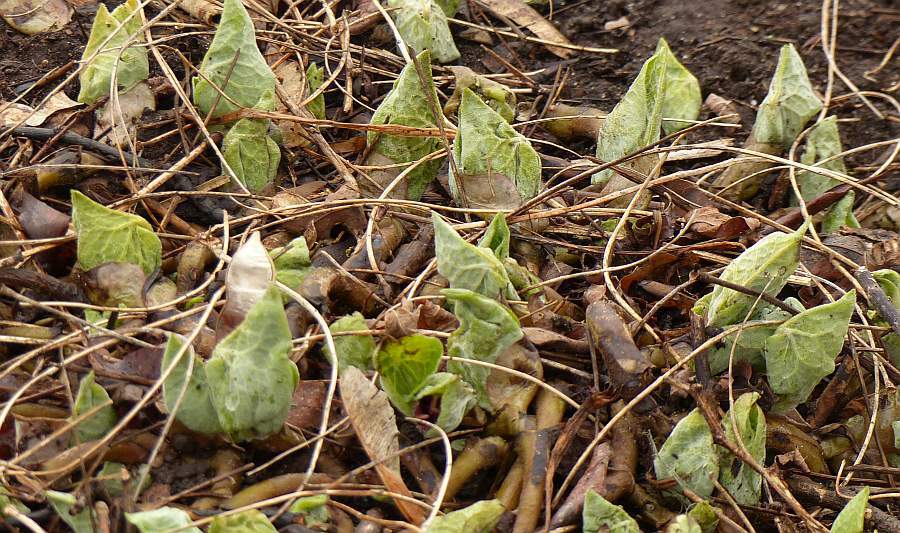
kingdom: Plantae
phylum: Tracheophyta
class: Magnoliopsida
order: Piperales
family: Aristolochiaceae
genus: Asarum
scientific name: Asarum canadense
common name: Wild ginger
